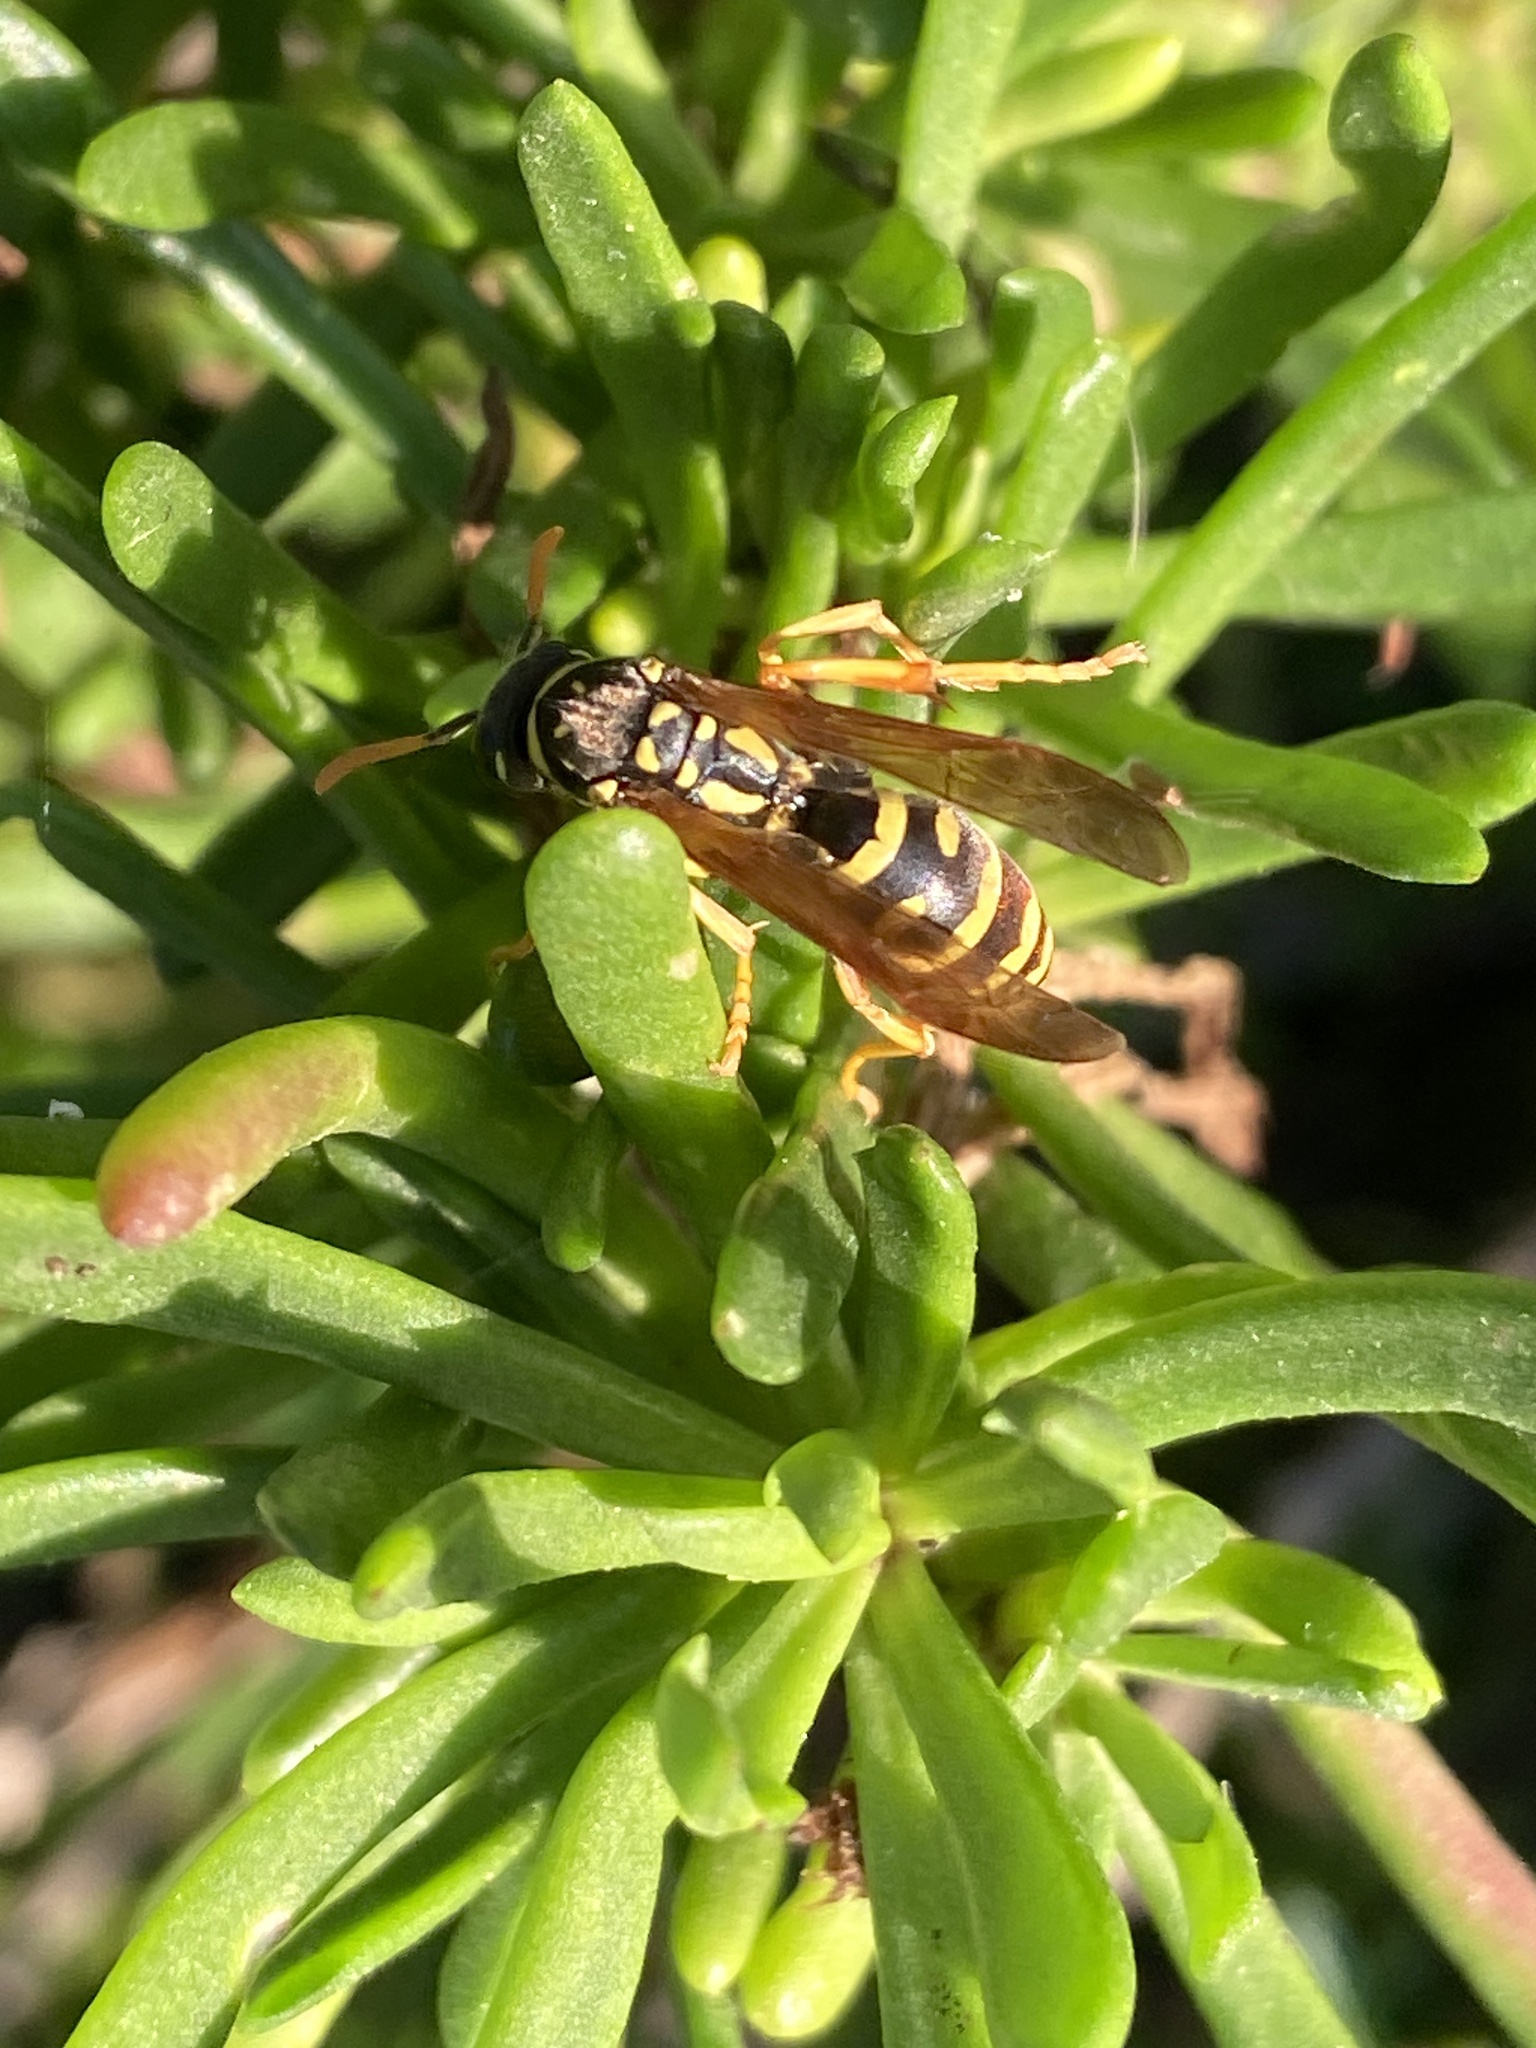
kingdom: Animalia
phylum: Arthropoda
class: Insecta
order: Hymenoptera
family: Eumenidae
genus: Polistes
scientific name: Polistes gallicus
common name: Paper wasp
